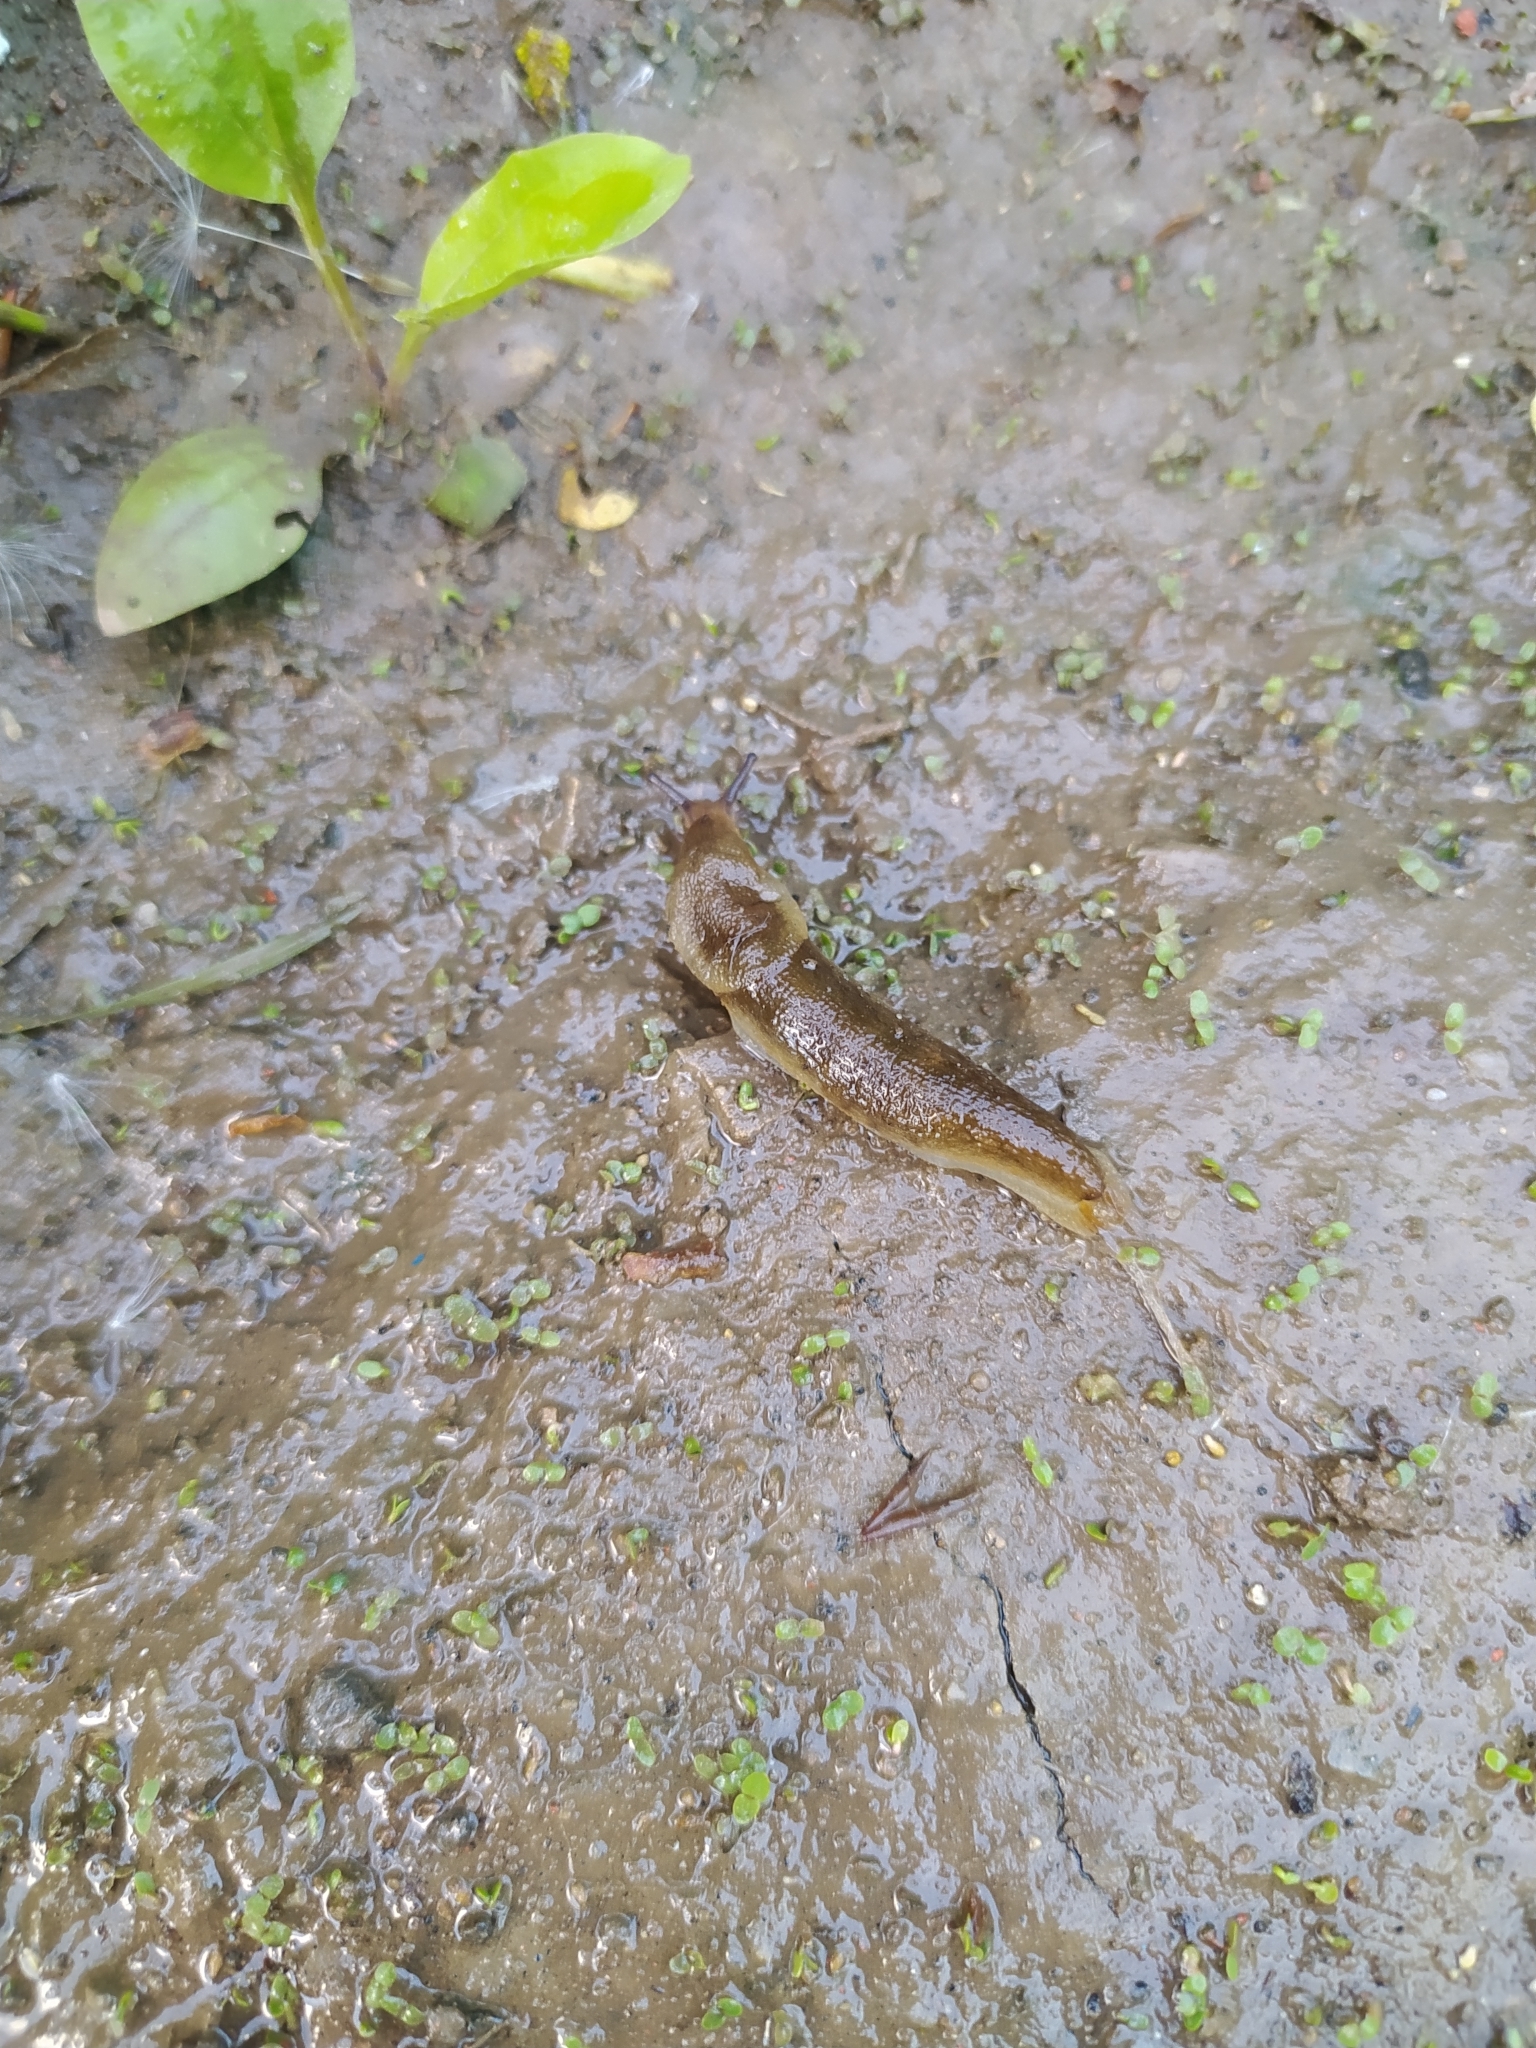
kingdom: Animalia
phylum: Mollusca
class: Gastropoda
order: Stylommatophora
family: Arionidae
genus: Arion
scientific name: Arion fuscus
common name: Northern dusky slug
